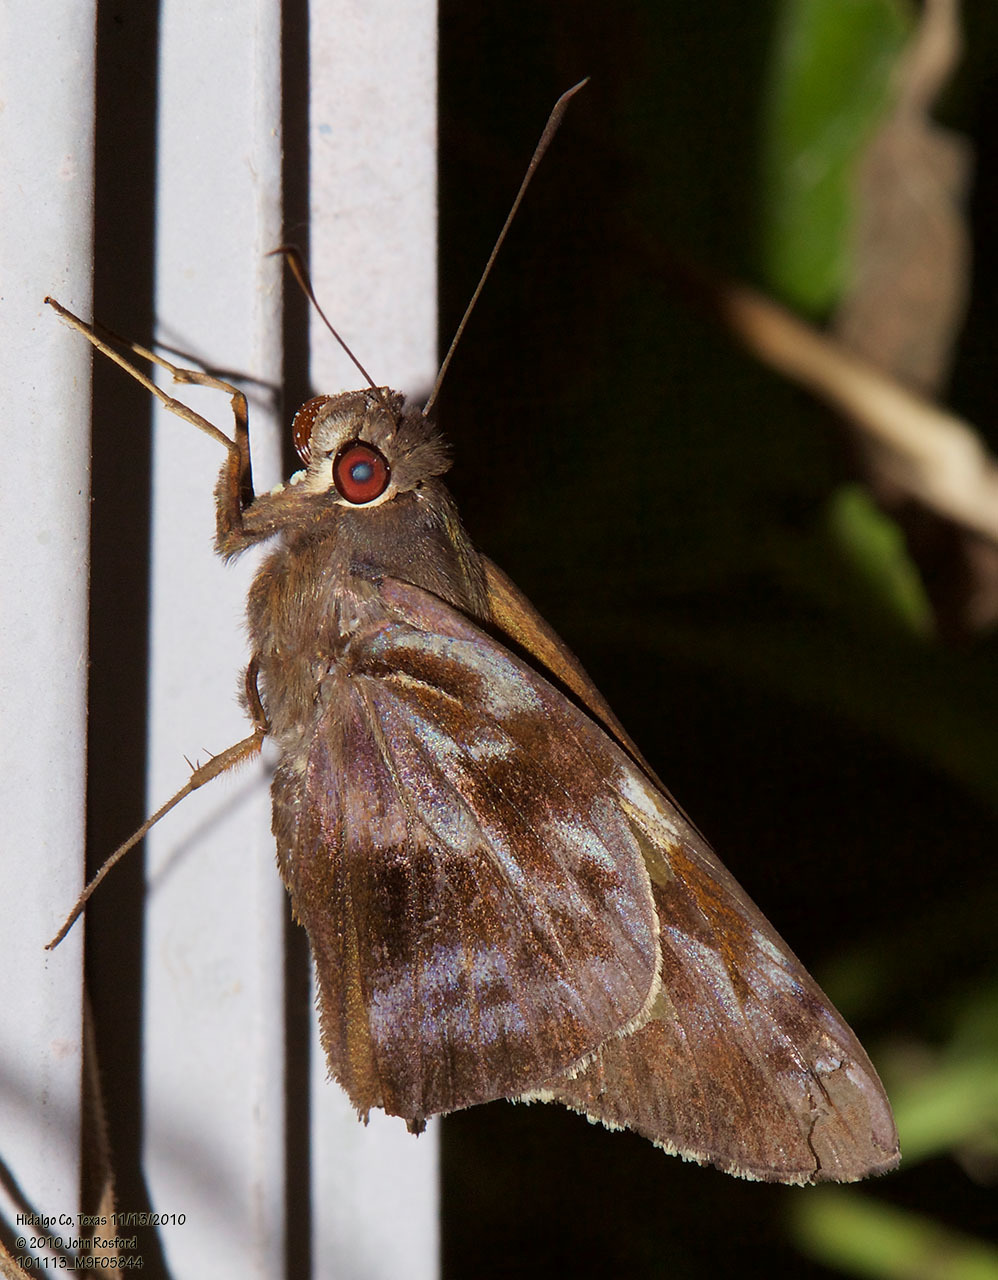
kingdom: Animalia
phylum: Arthropoda
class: Insecta
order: Lepidoptera
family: Hesperiidae
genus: Perichares
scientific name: Perichares philetes
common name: Green-backed ruby-eye
